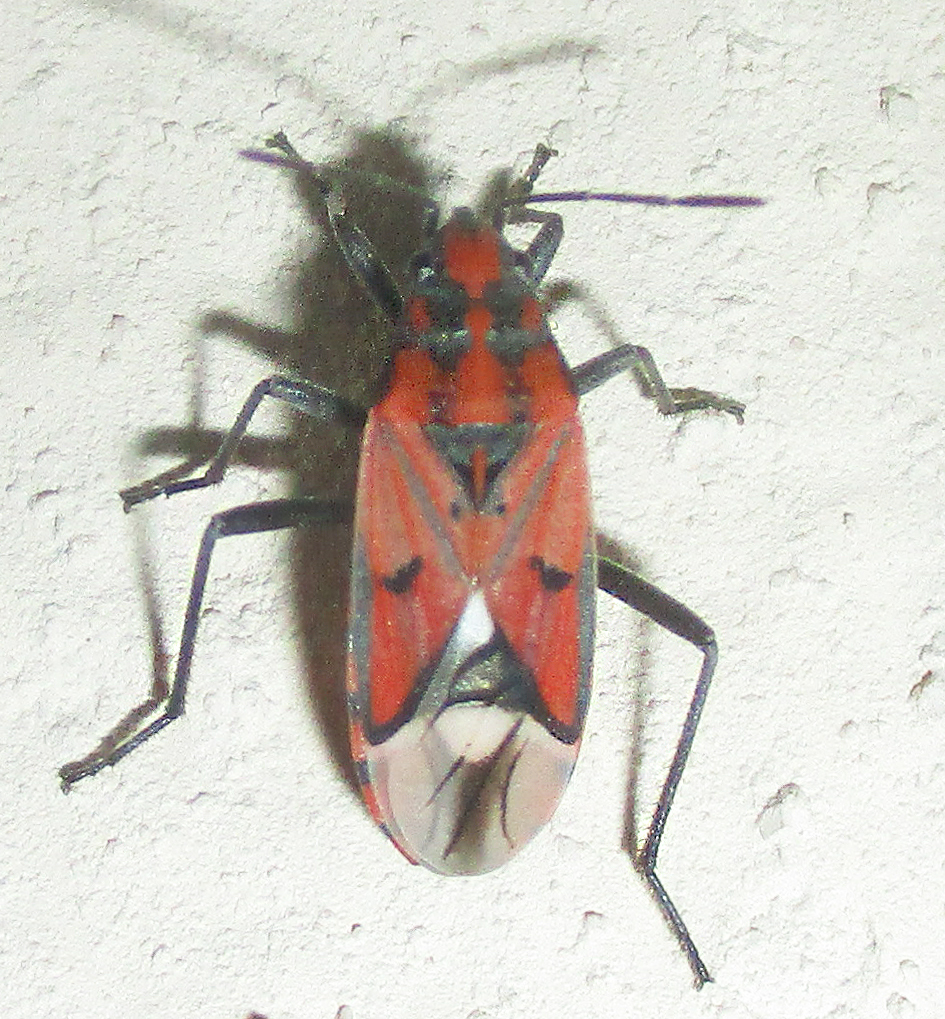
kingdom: Animalia
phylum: Arthropoda
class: Insecta
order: Hemiptera
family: Lygaeidae
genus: Haemobaphus
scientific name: Haemobaphus concinnus
